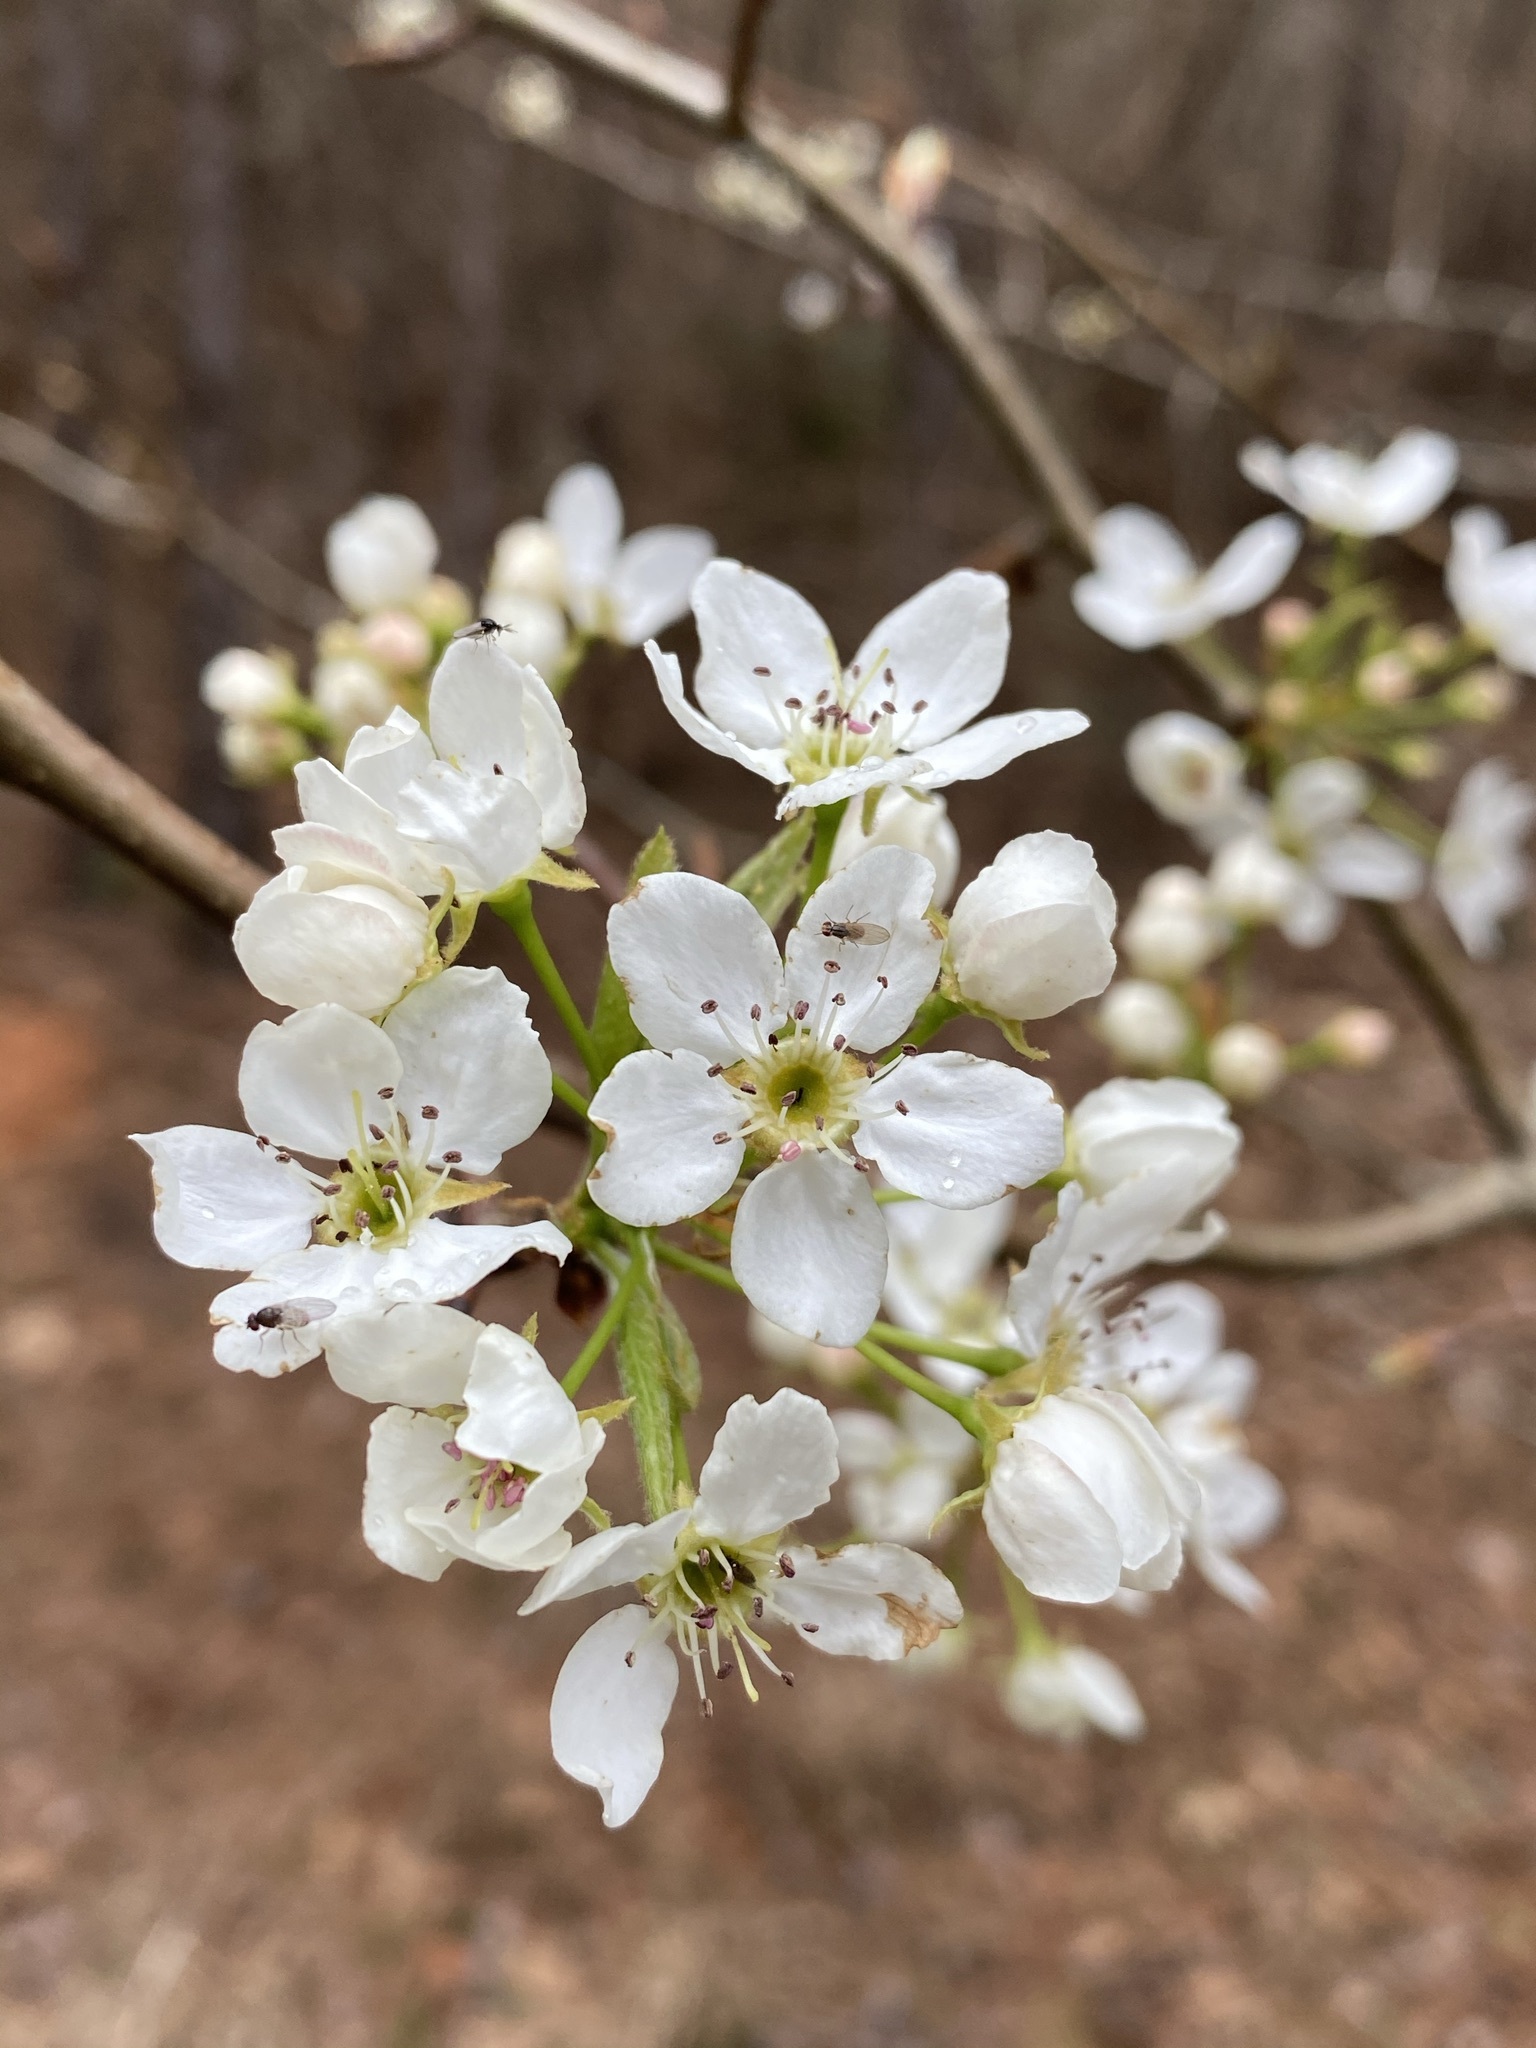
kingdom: Plantae
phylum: Tracheophyta
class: Magnoliopsida
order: Rosales
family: Rosaceae
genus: Pyrus
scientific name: Pyrus calleryana
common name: Callery pear
